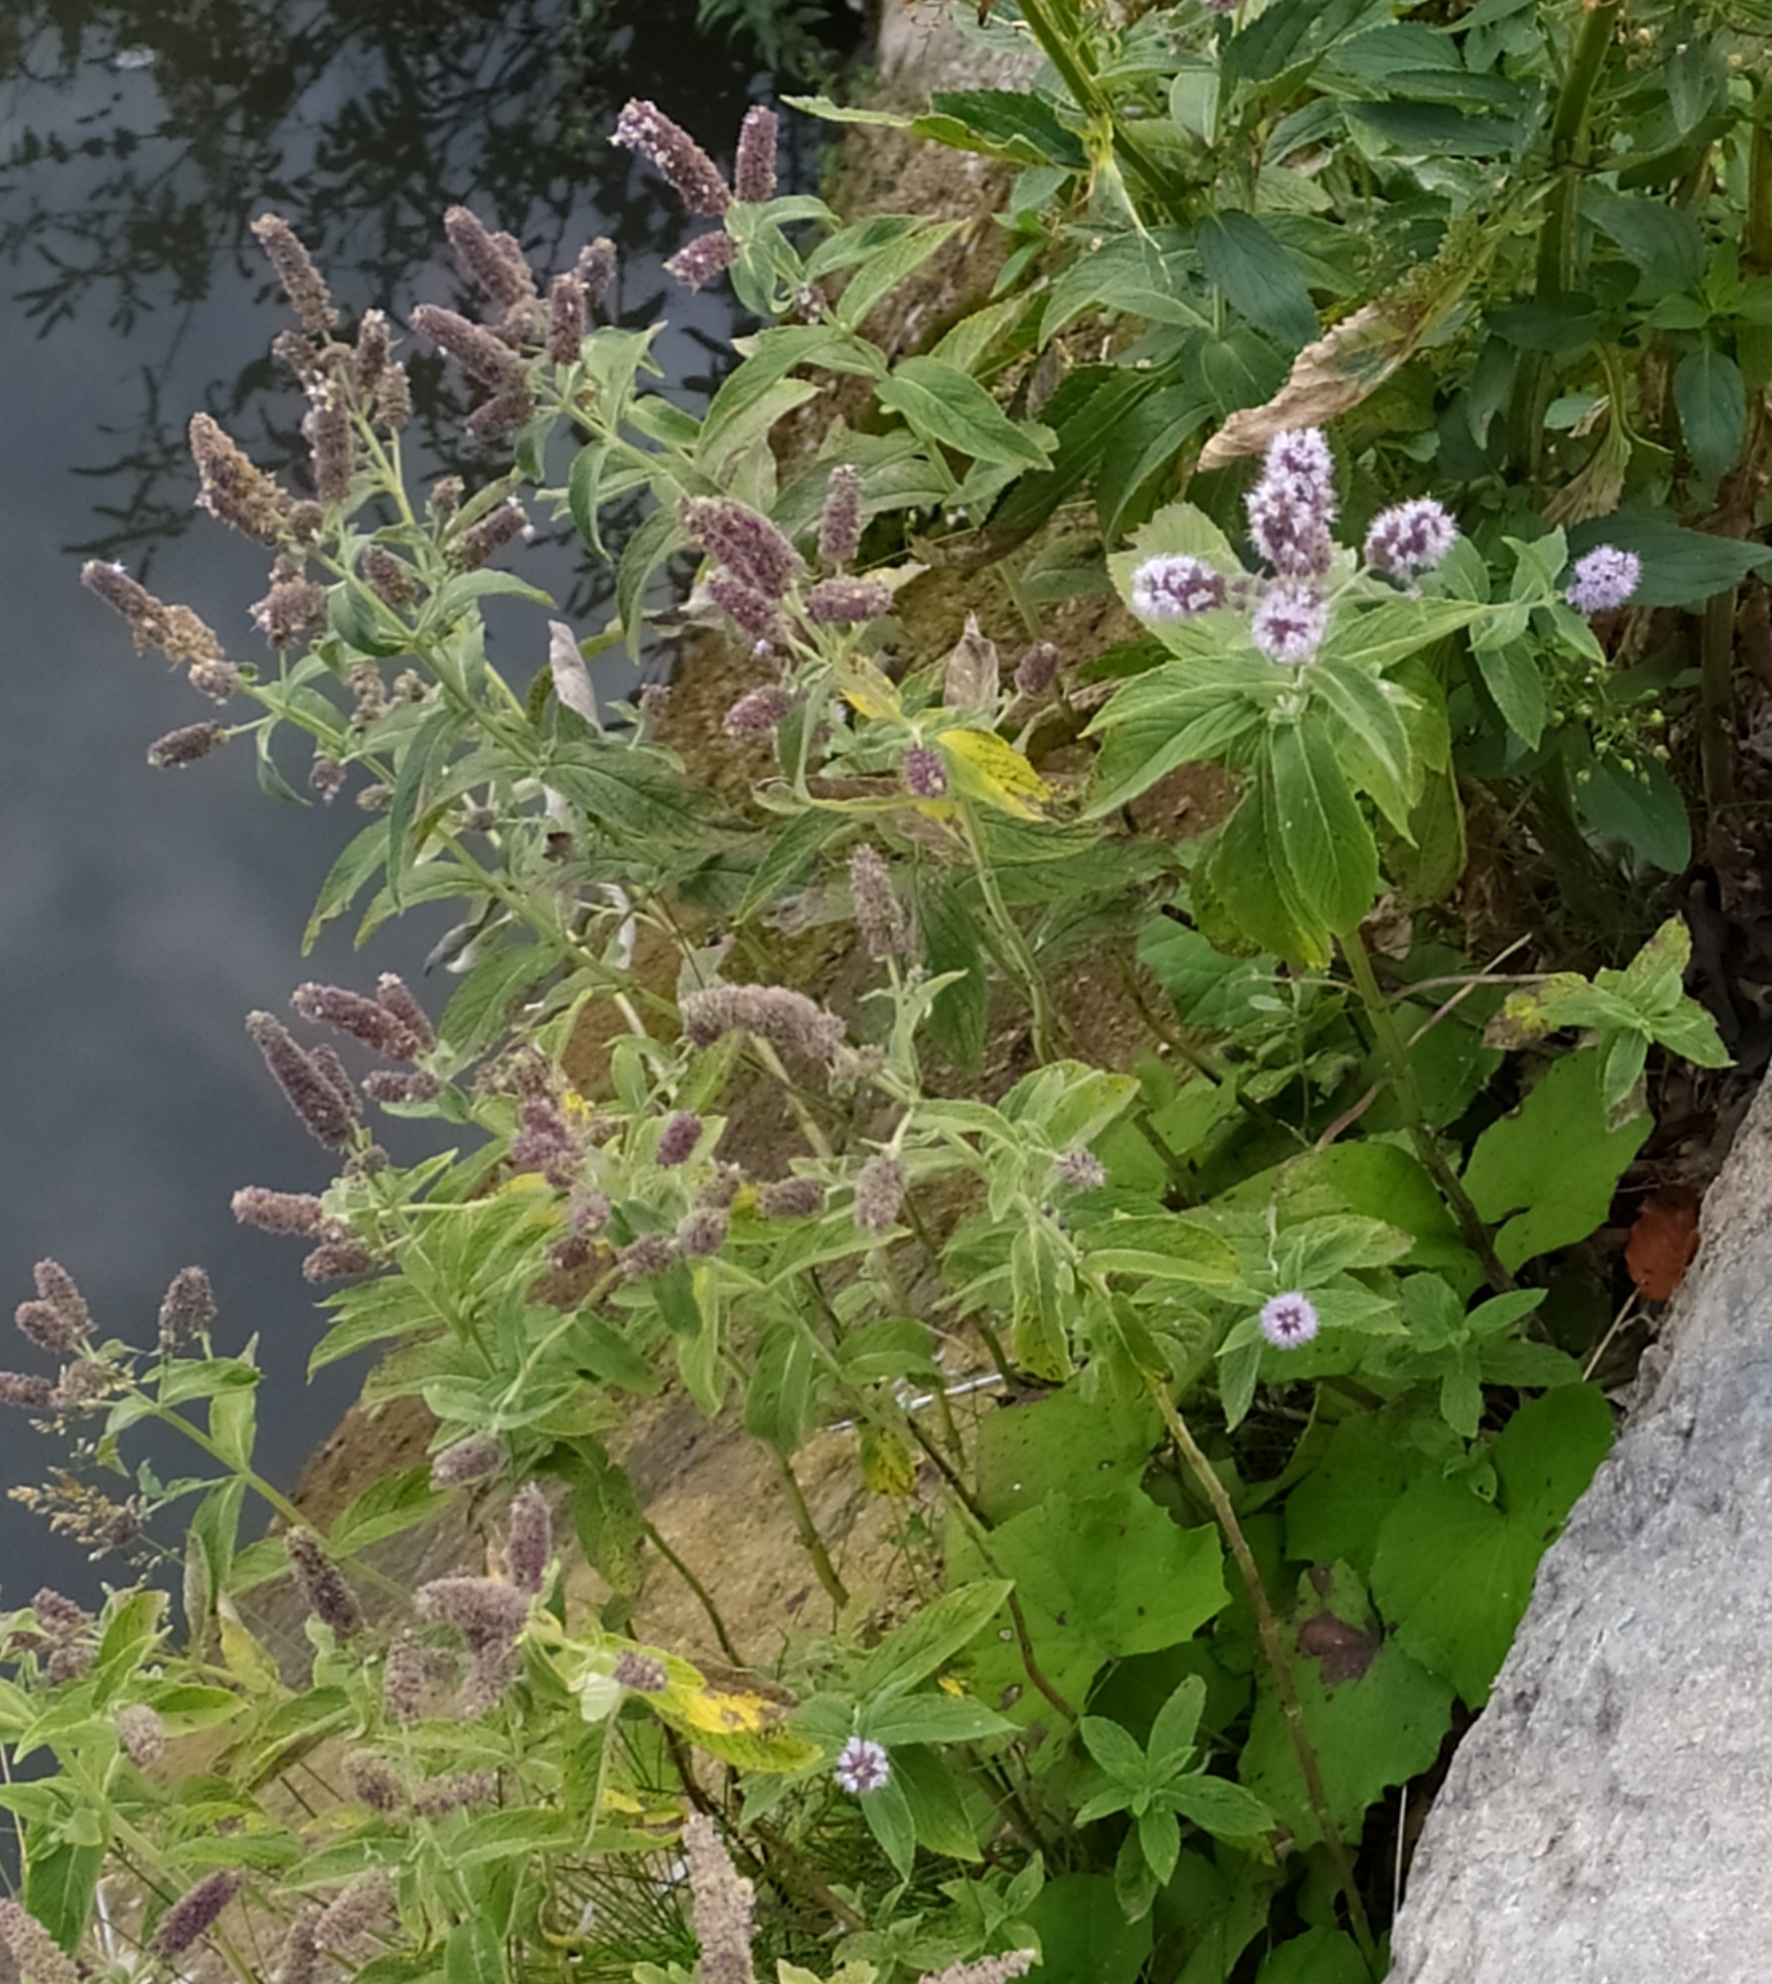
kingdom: Plantae
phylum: Tracheophyta
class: Magnoliopsida
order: Lamiales
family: Lamiaceae
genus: Mentha
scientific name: Mentha longifolia
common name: Horse mint
